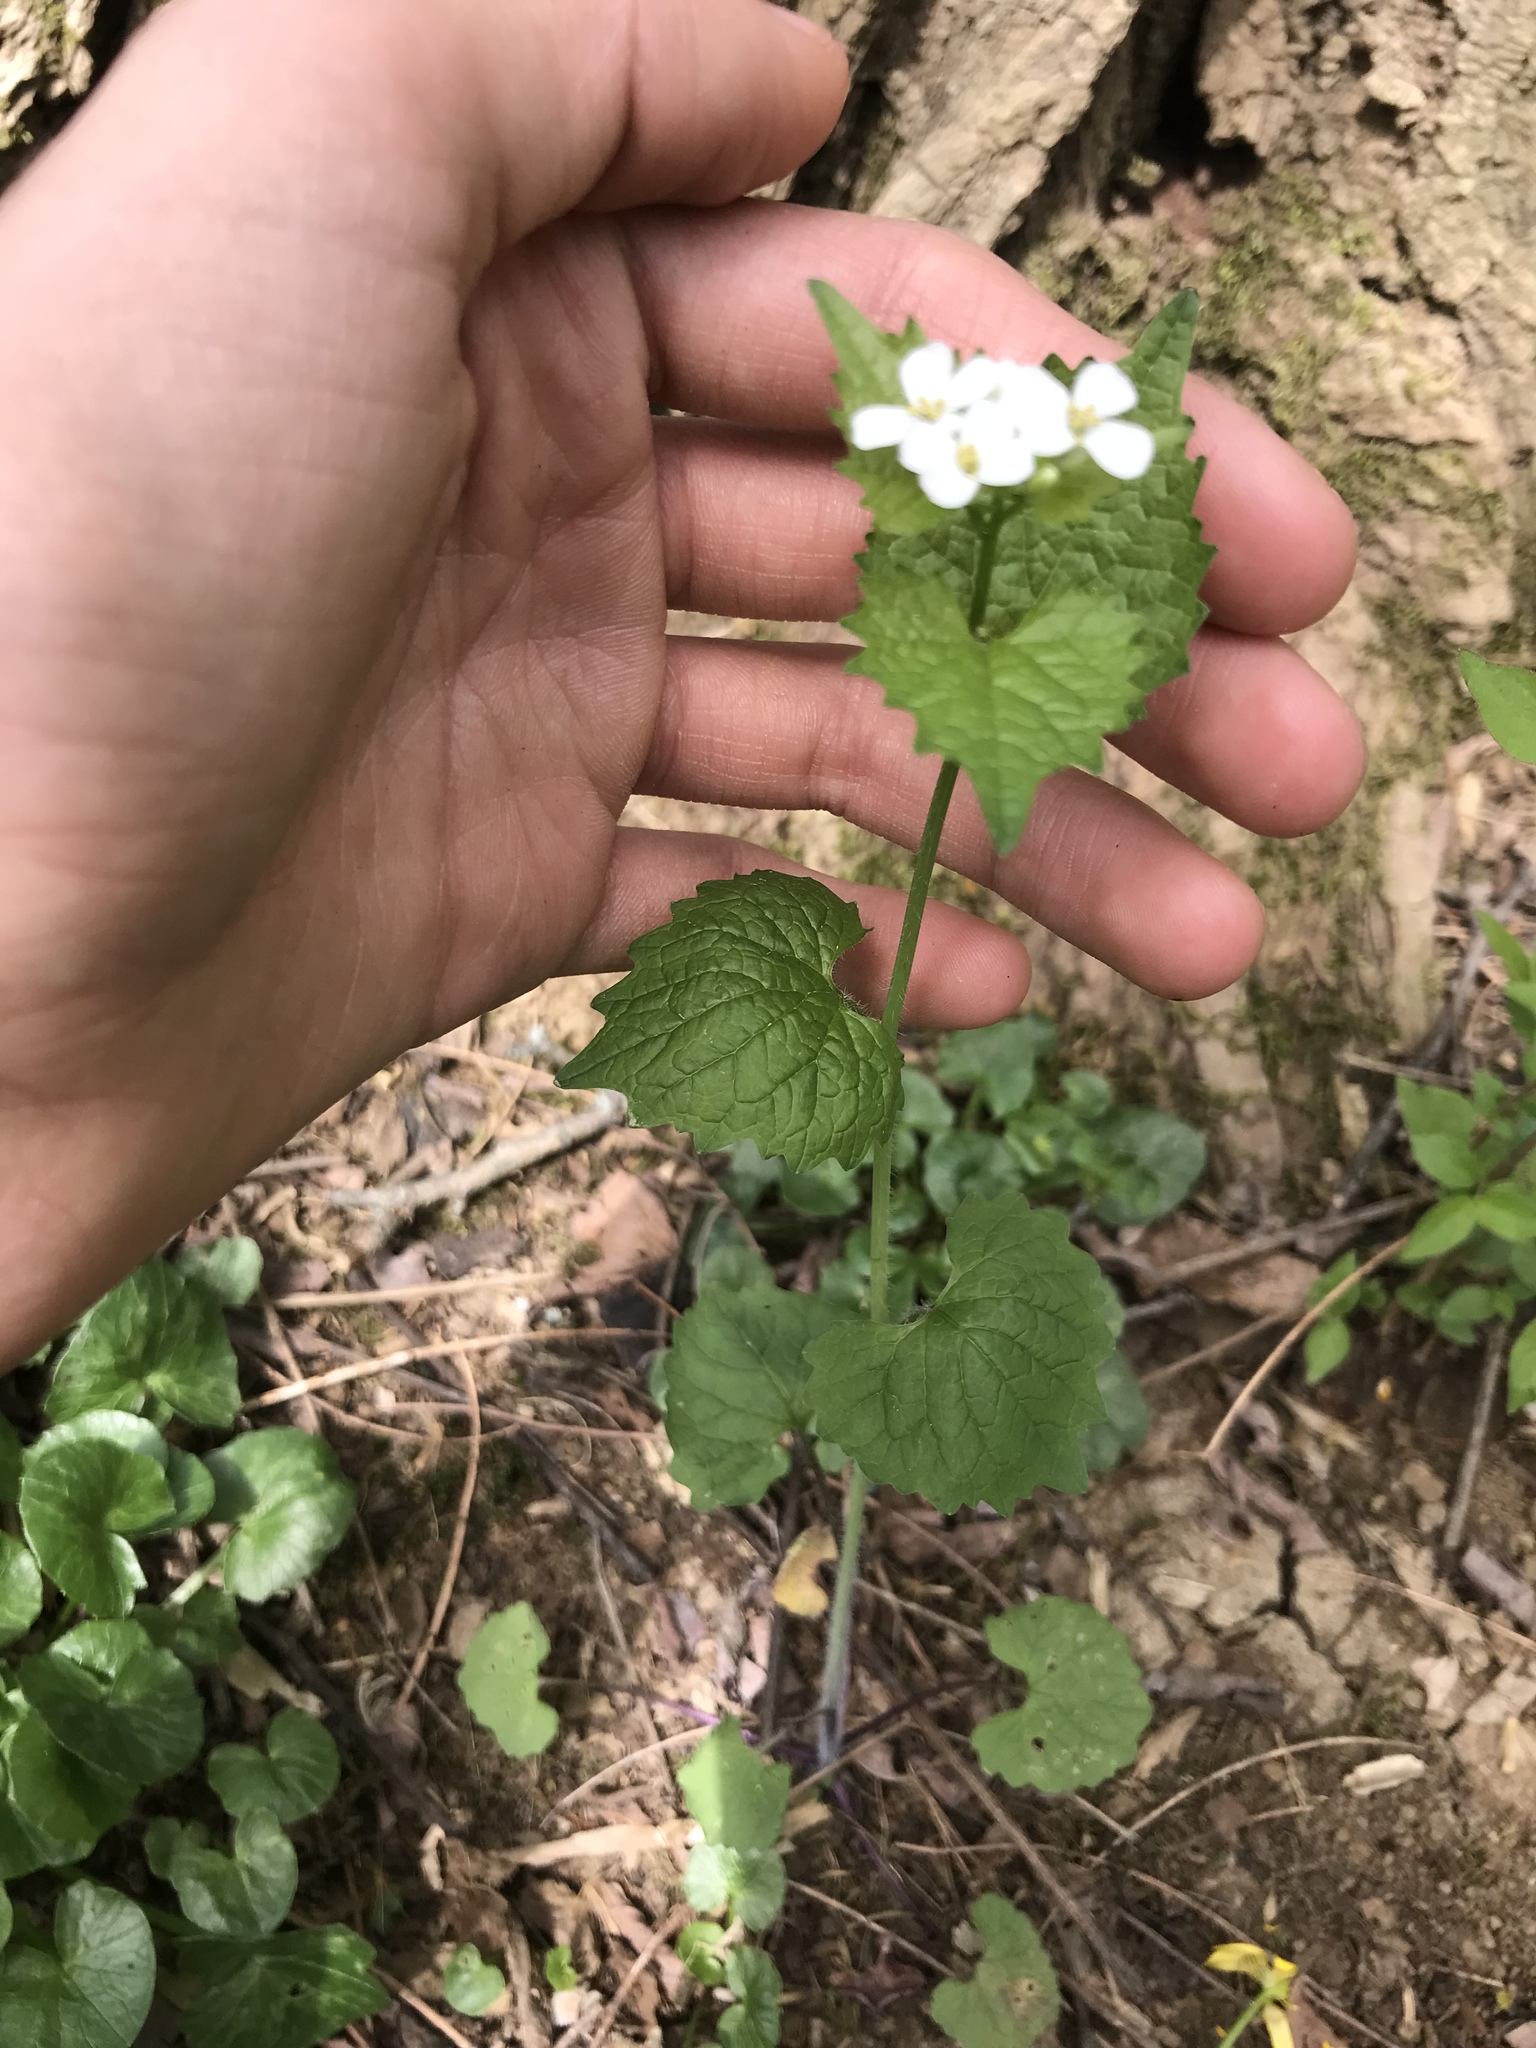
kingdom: Plantae
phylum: Tracheophyta
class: Magnoliopsida
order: Brassicales
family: Brassicaceae
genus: Alliaria
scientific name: Alliaria petiolata
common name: Garlic mustard
